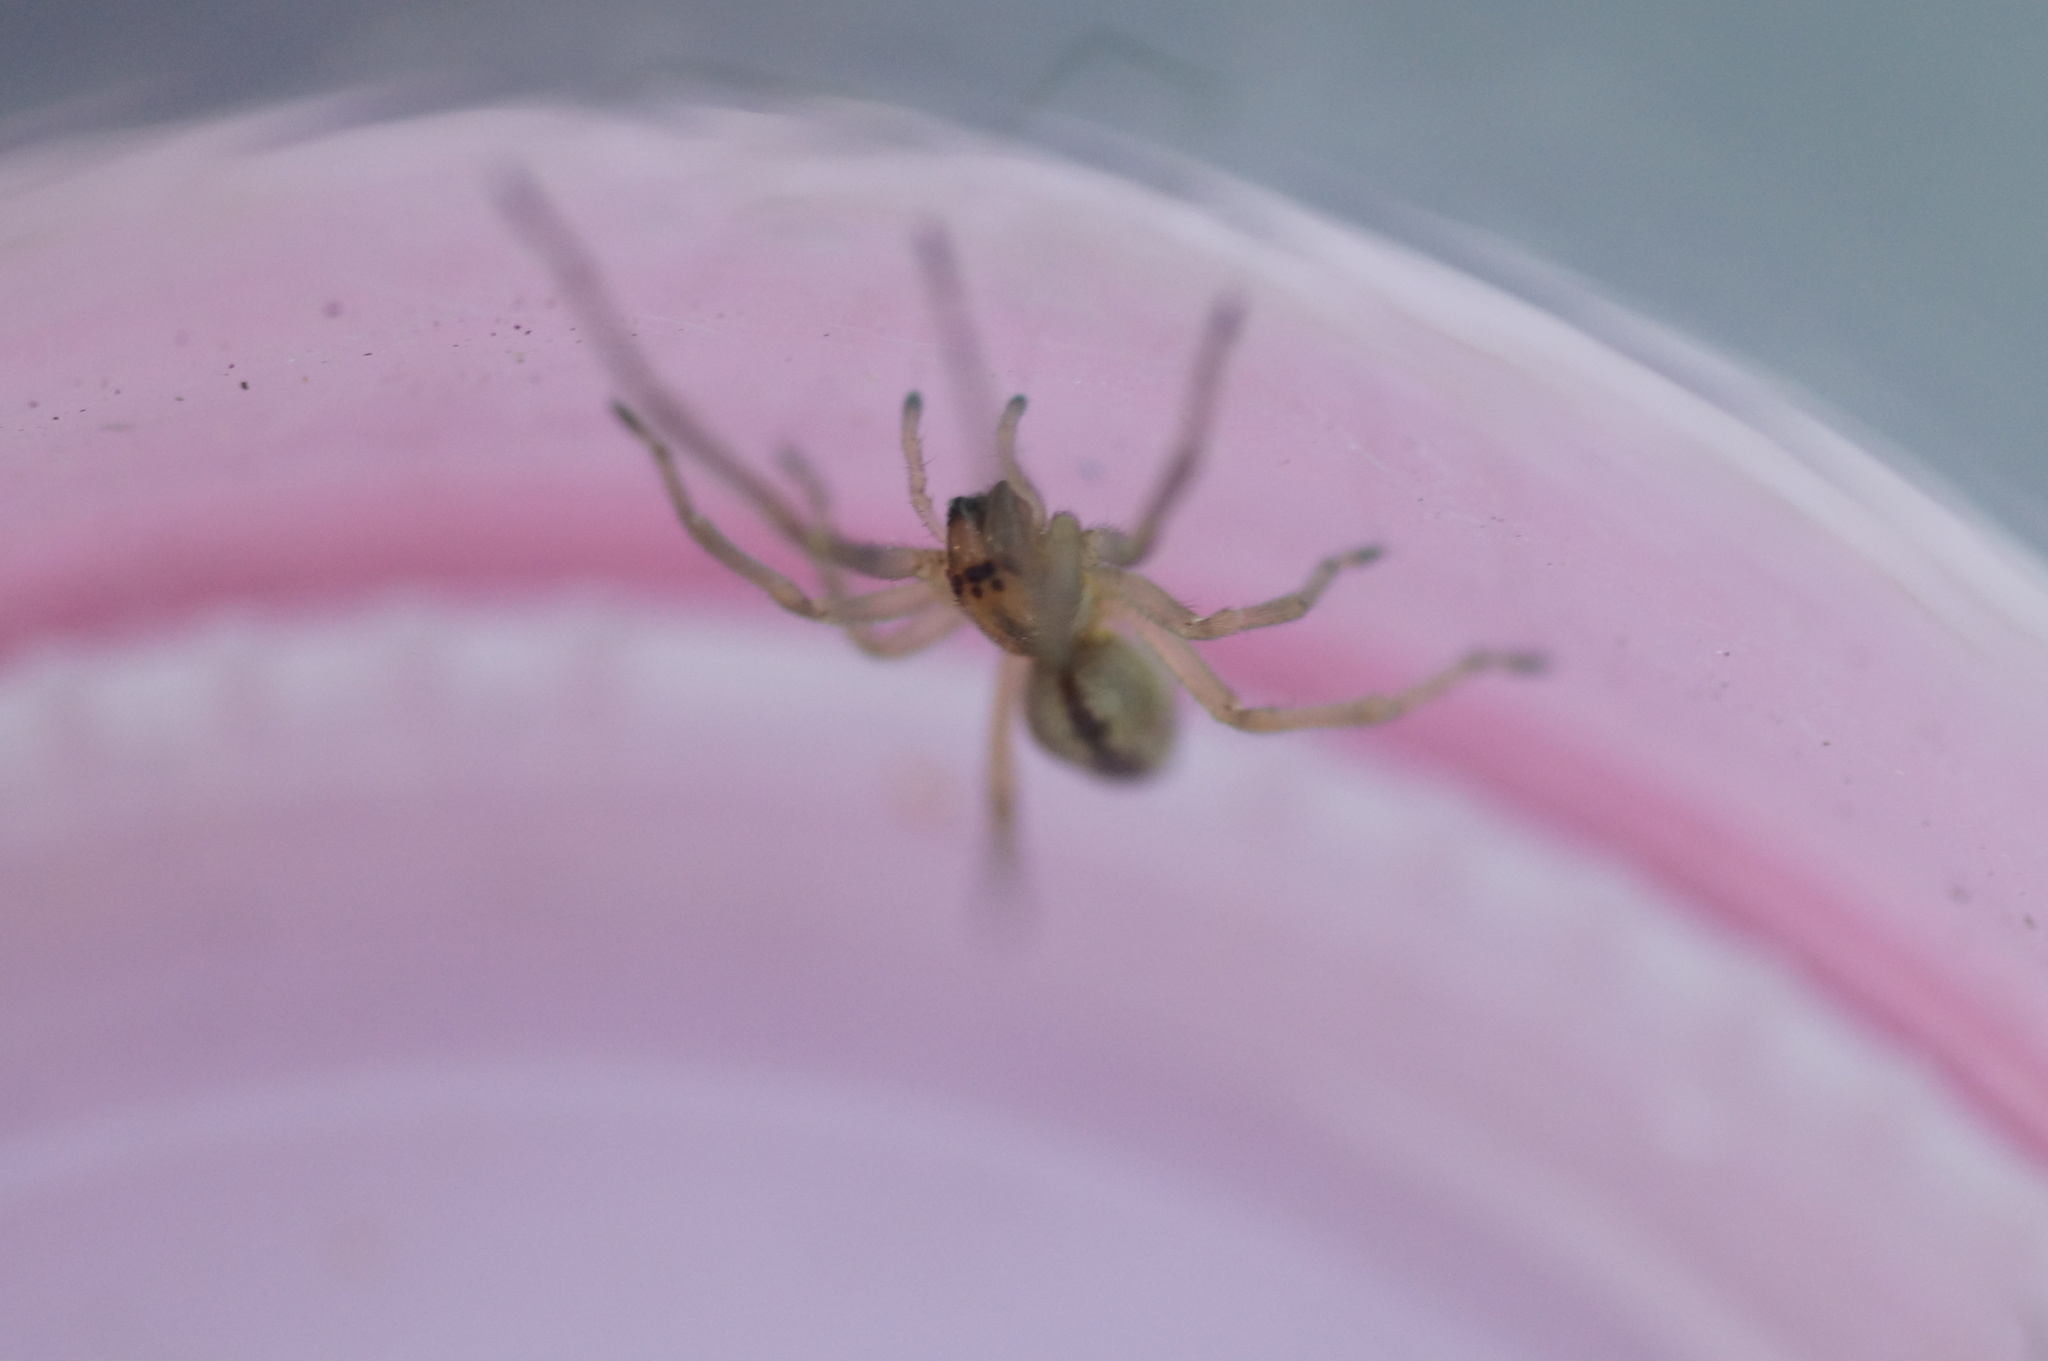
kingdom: Animalia
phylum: Arthropoda
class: Arachnida
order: Araneae
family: Cheiracanthiidae
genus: Cheiracanthium
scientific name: Cheiracanthium erraticum
